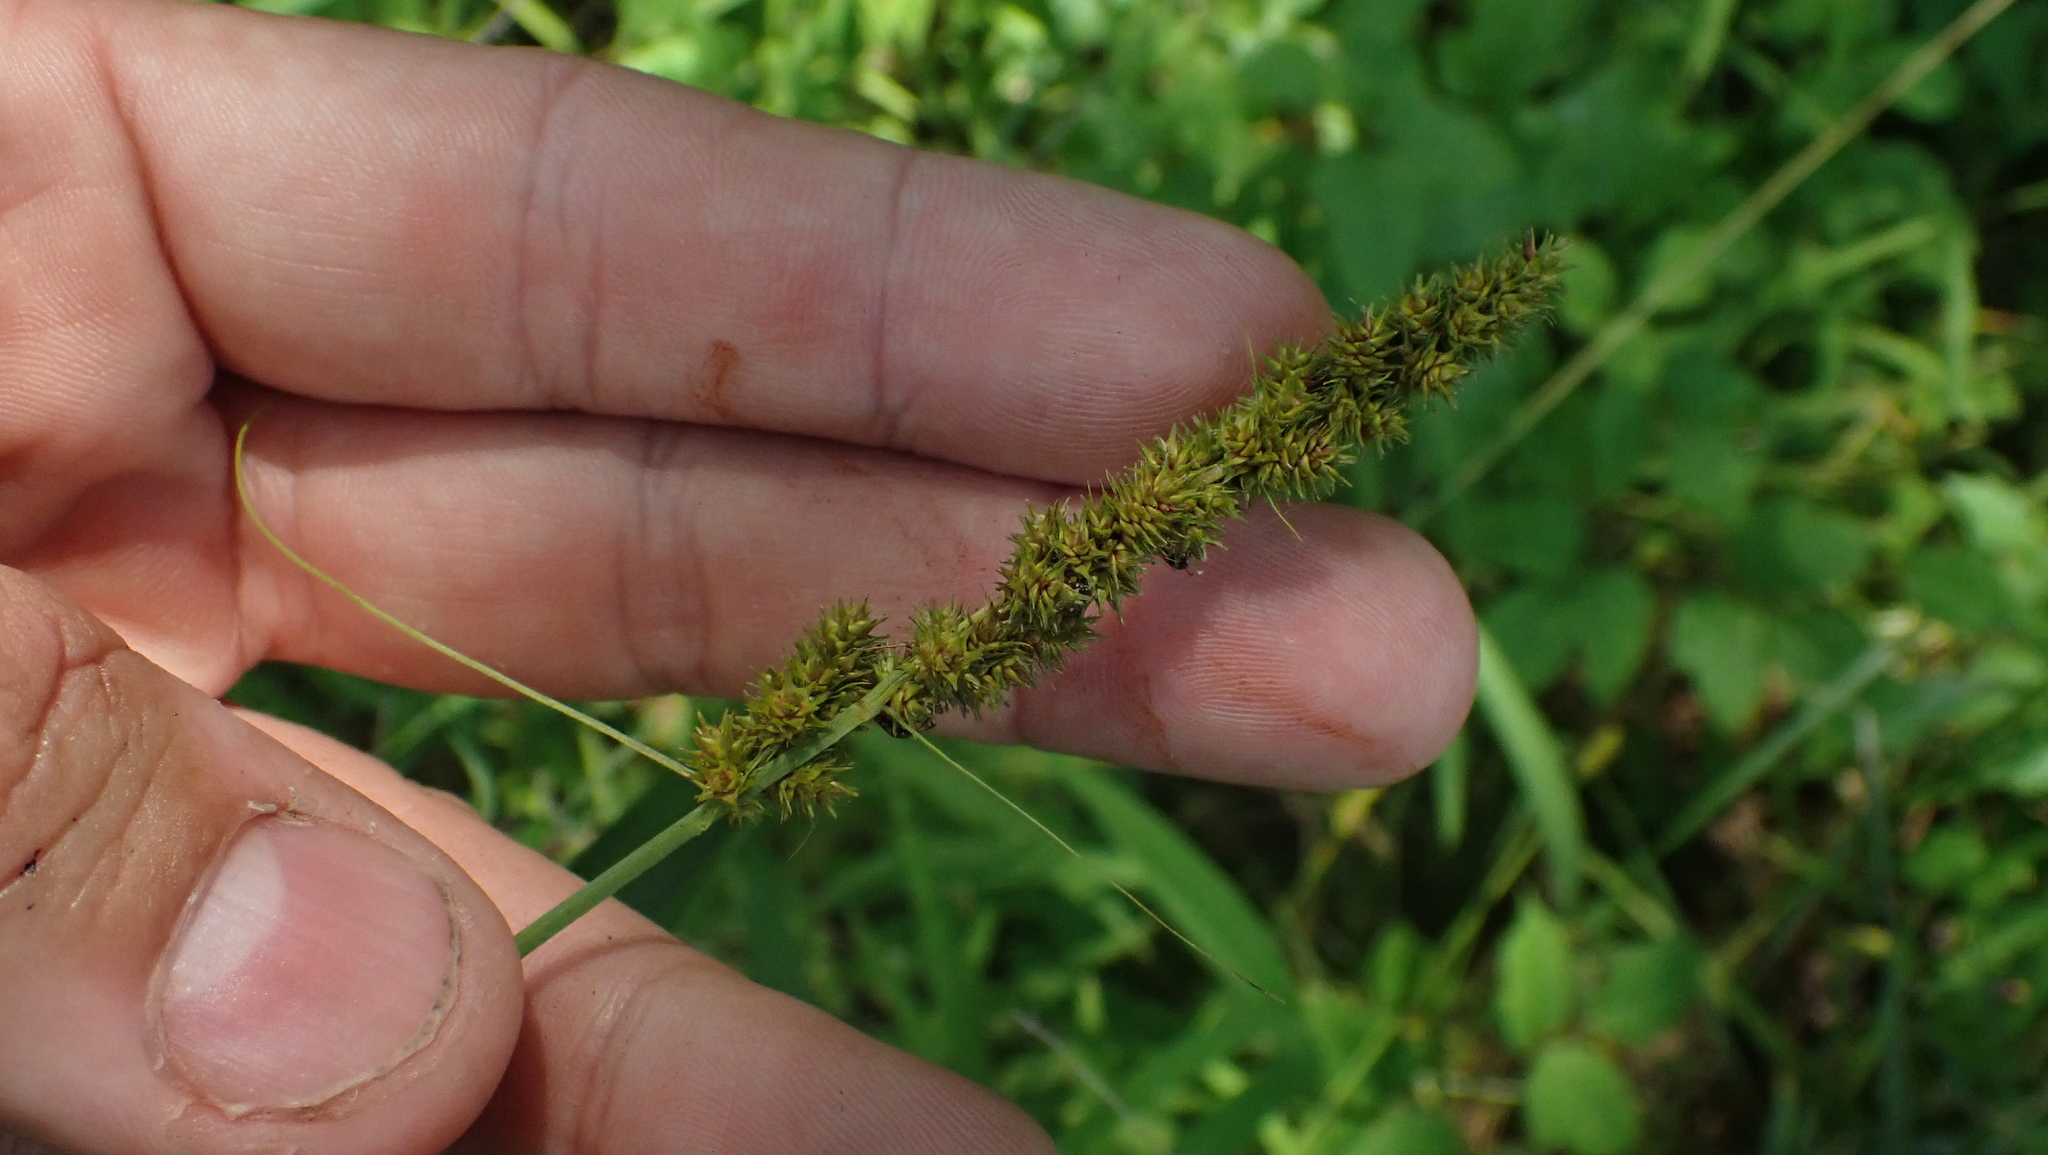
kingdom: Plantae
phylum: Tracheophyta
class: Liliopsida
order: Poales
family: Cyperaceae
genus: Carex
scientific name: Carex vulpinoidea
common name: American fox-sedge
